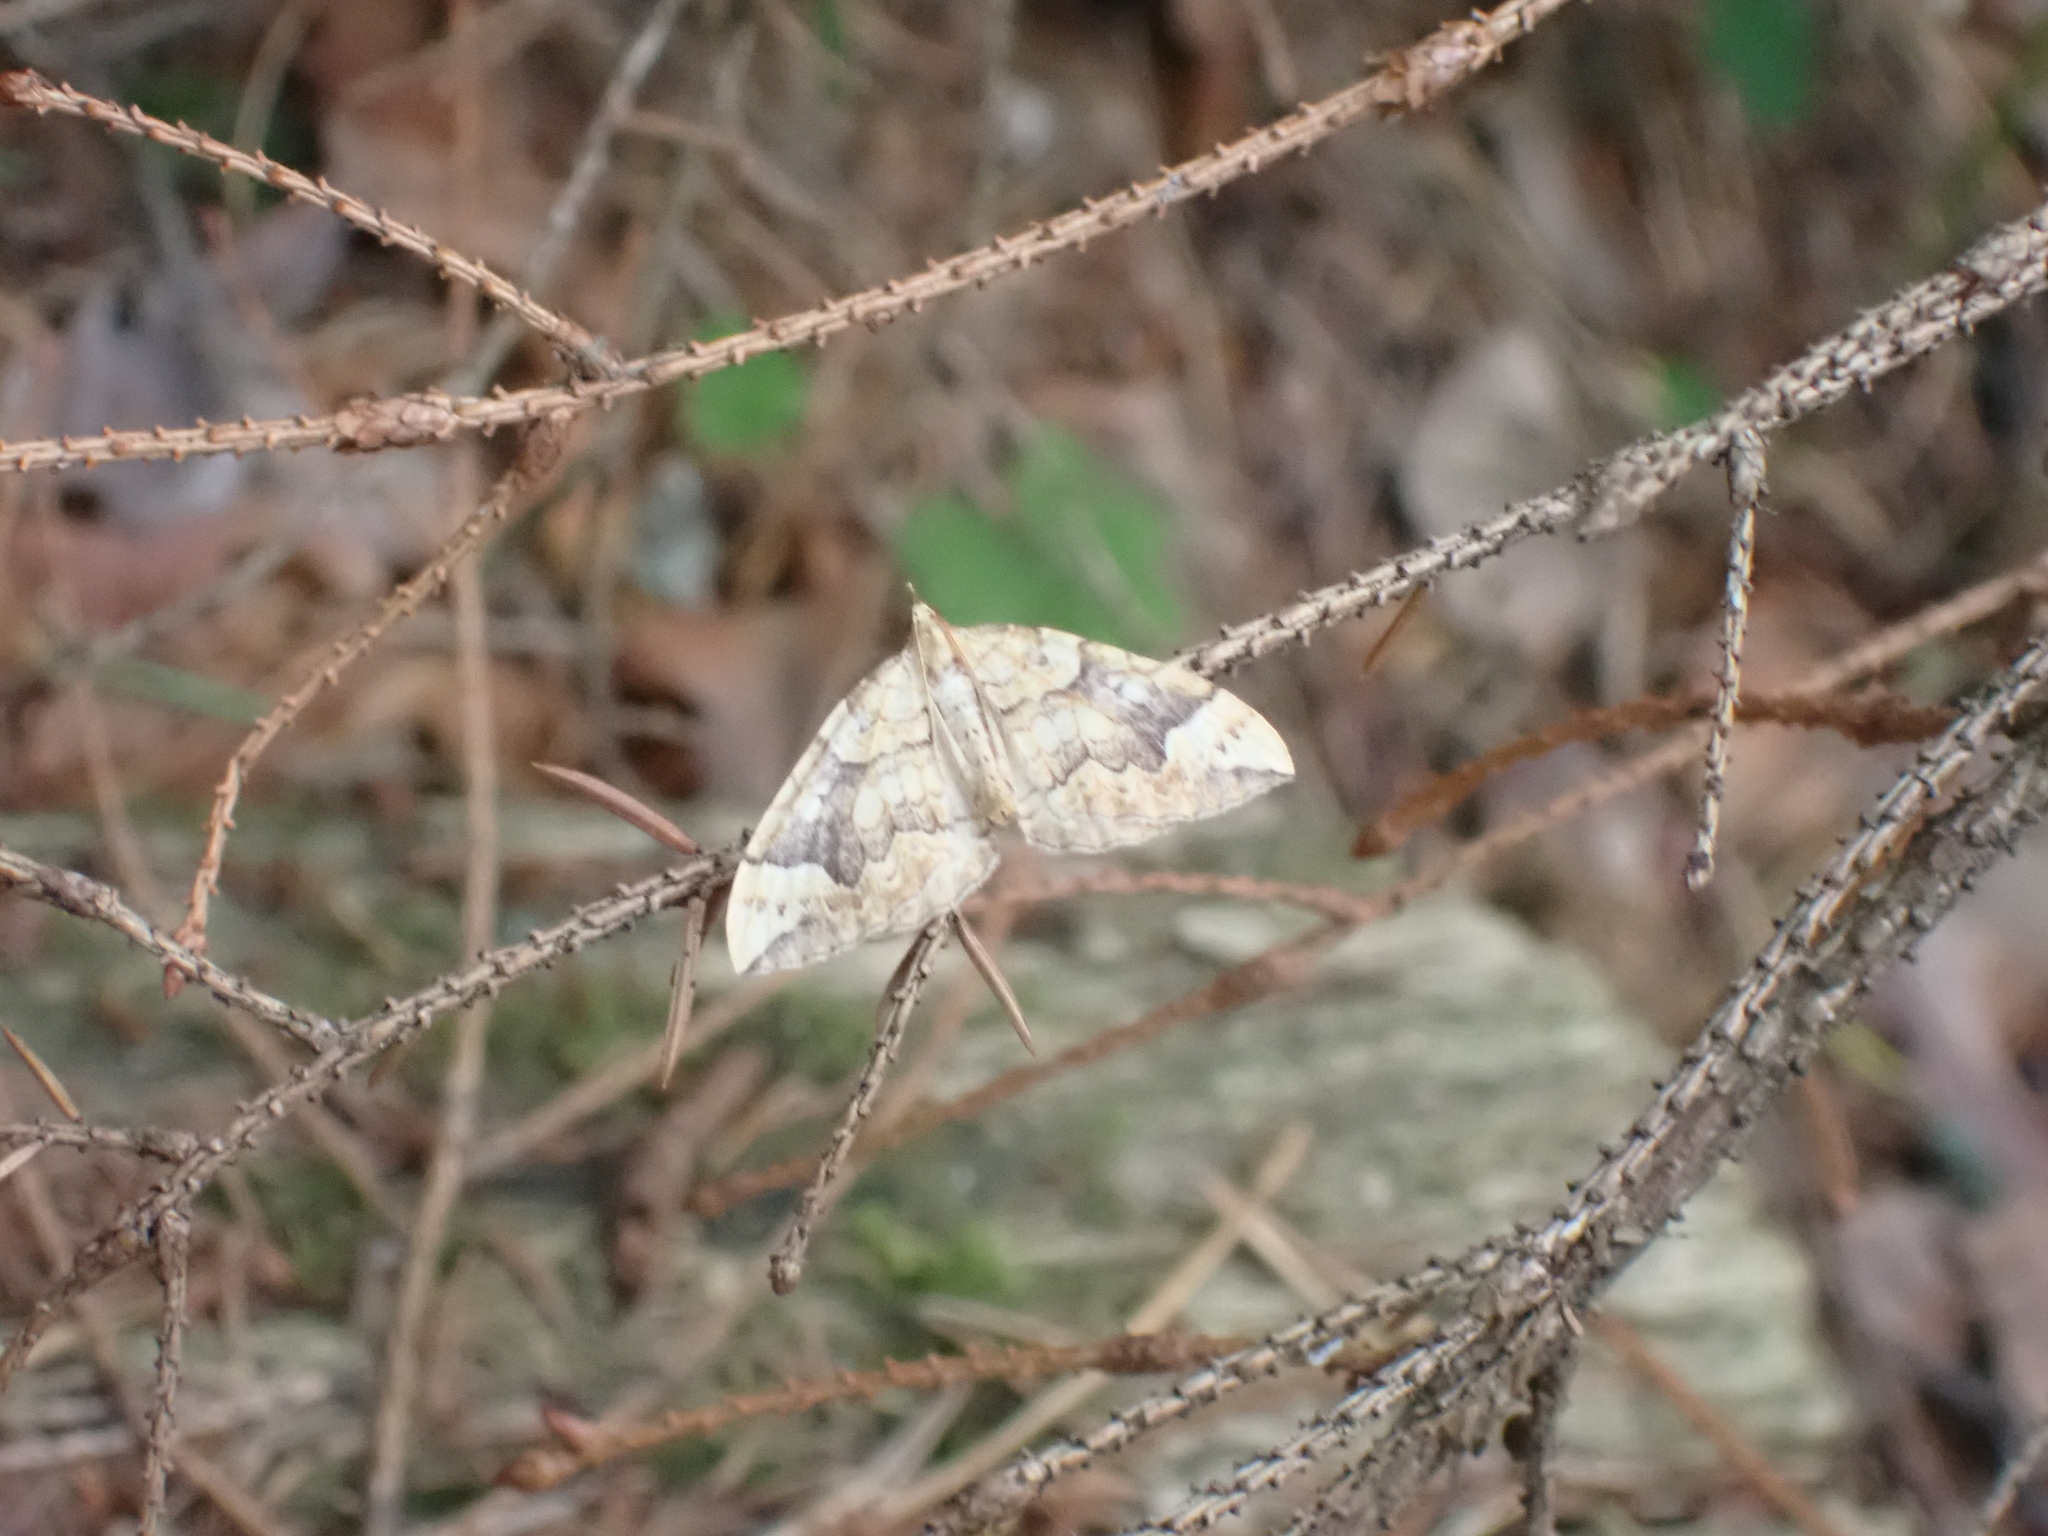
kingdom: Animalia
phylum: Arthropoda
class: Insecta
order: Lepidoptera
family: Geometridae
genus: Eulithis
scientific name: Eulithis populata
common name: Northern spinach
